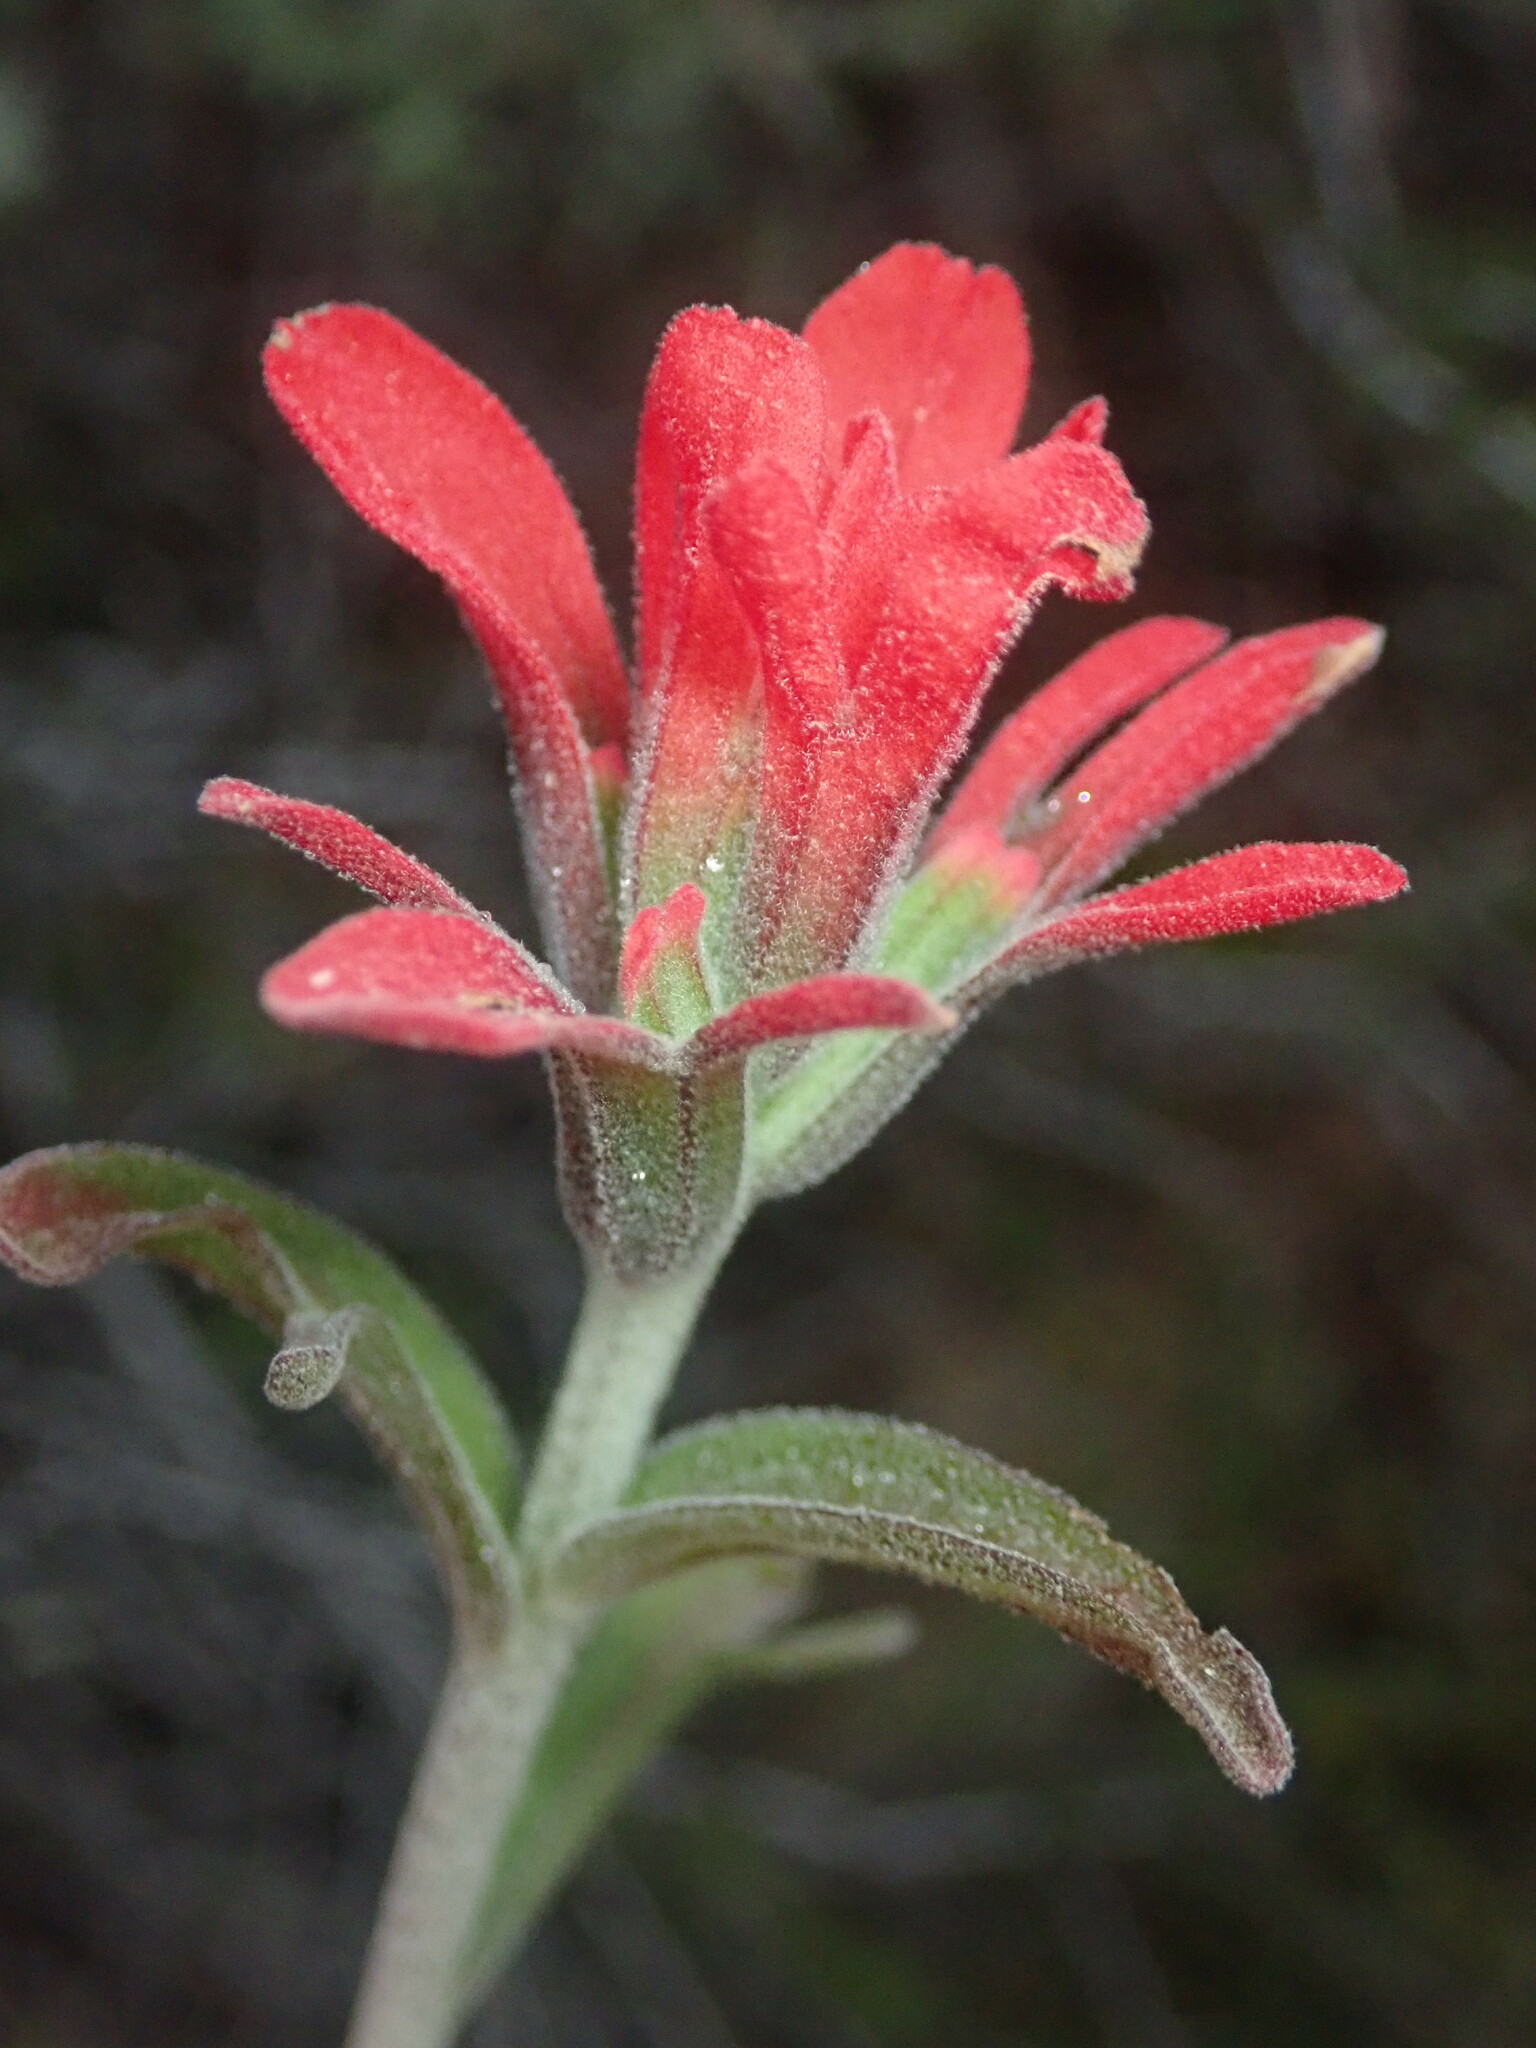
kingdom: Plantae
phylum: Tracheophyta
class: Magnoliopsida
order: Lamiales
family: Orobanchaceae
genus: Castilleja
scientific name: Castilleja foliolosa
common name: Woolly indian paintbrush
